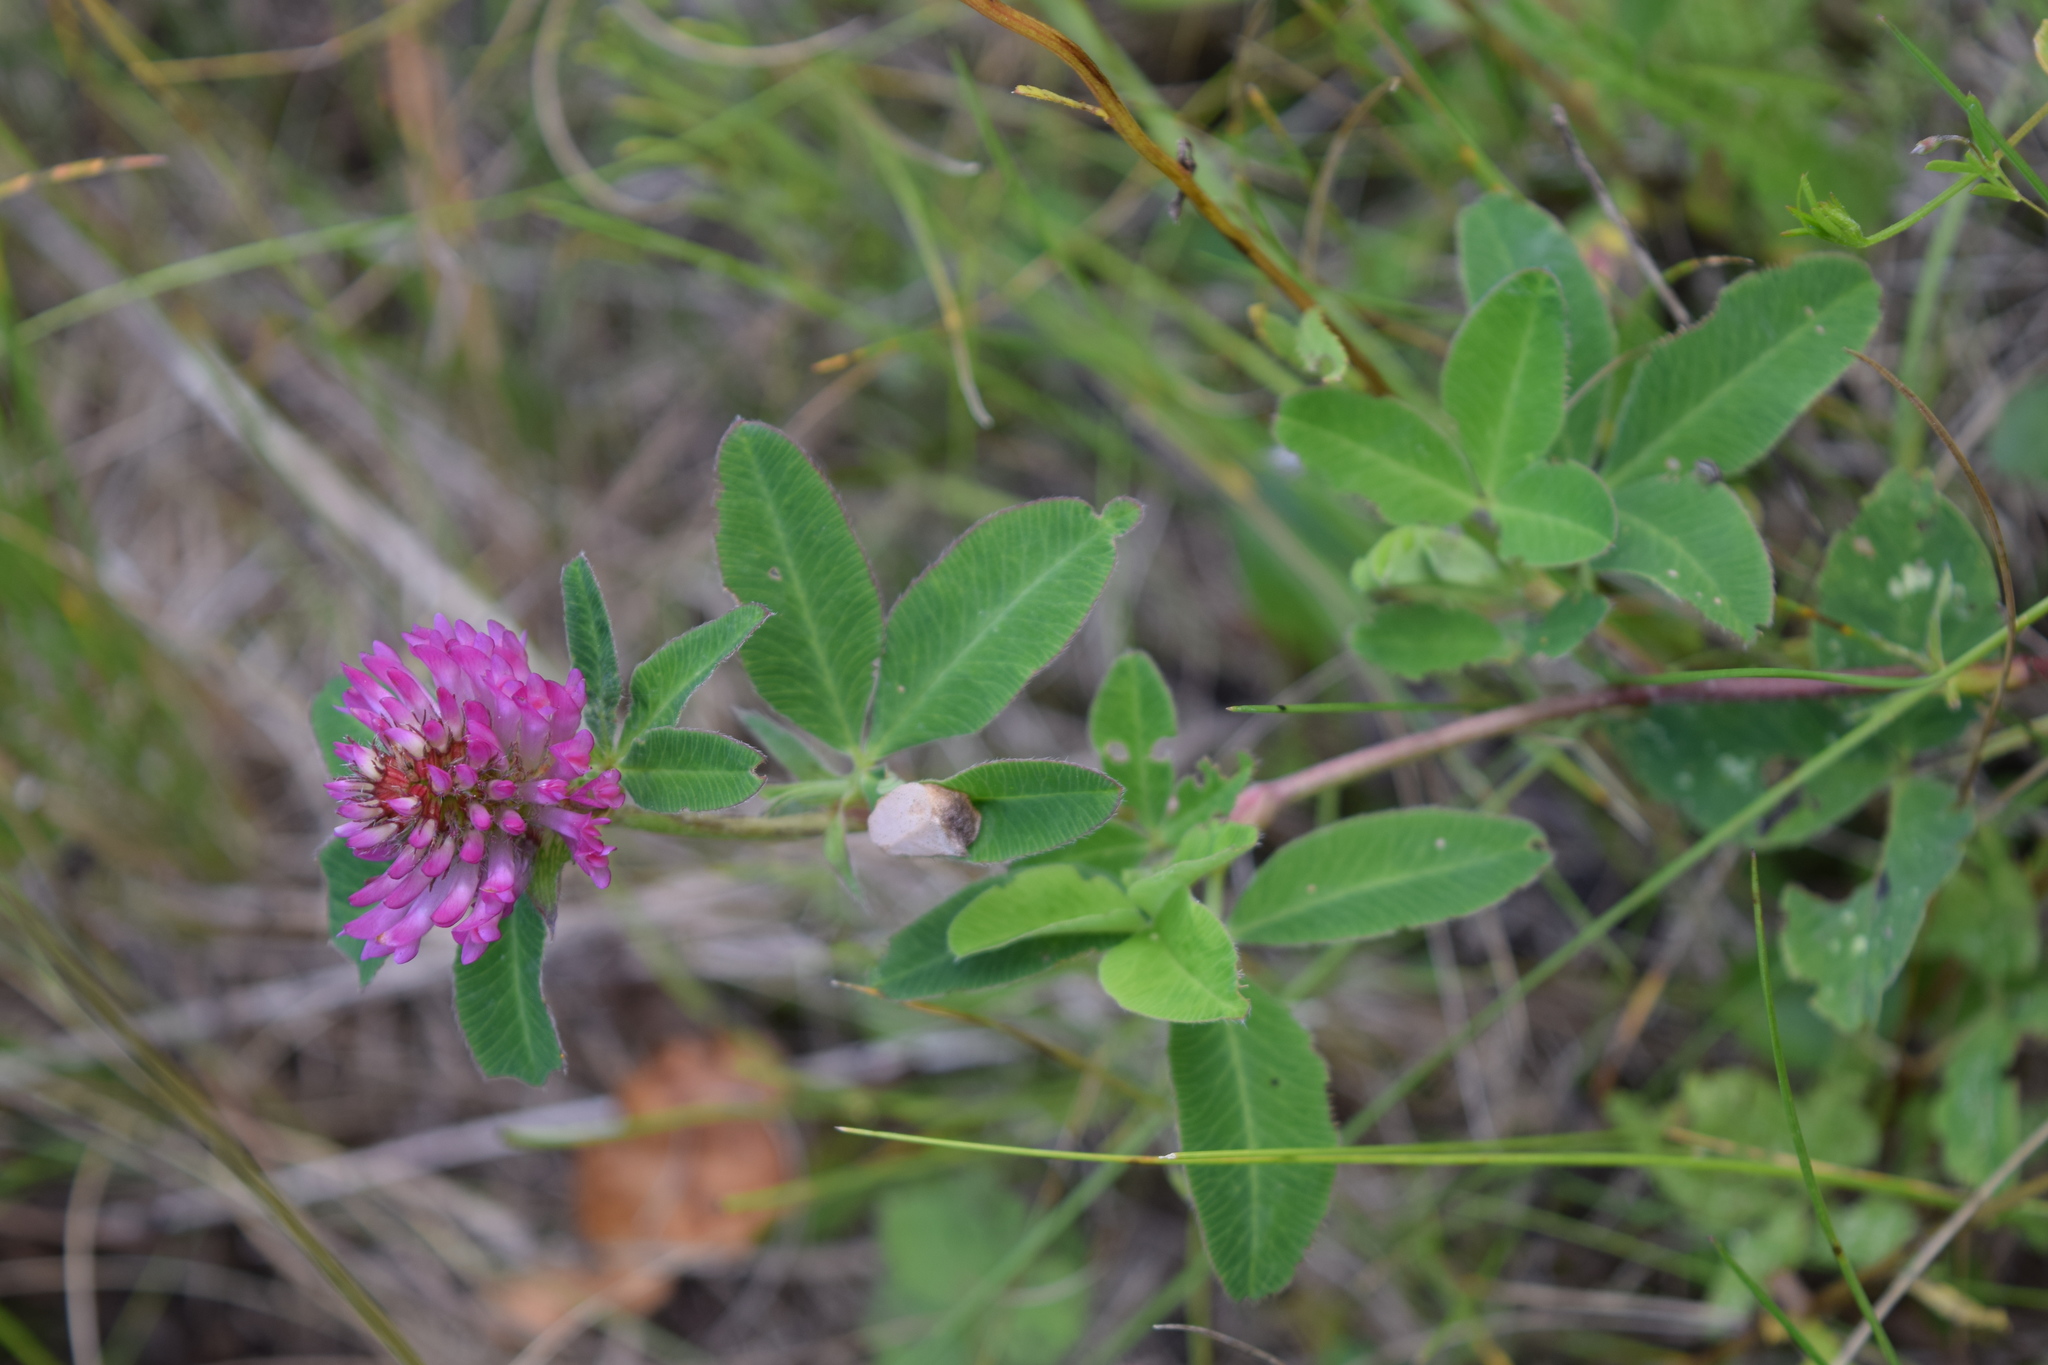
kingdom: Plantae
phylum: Tracheophyta
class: Magnoliopsida
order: Fabales
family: Fabaceae
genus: Trifolium
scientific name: Trifolium medium
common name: Zigzag clover
